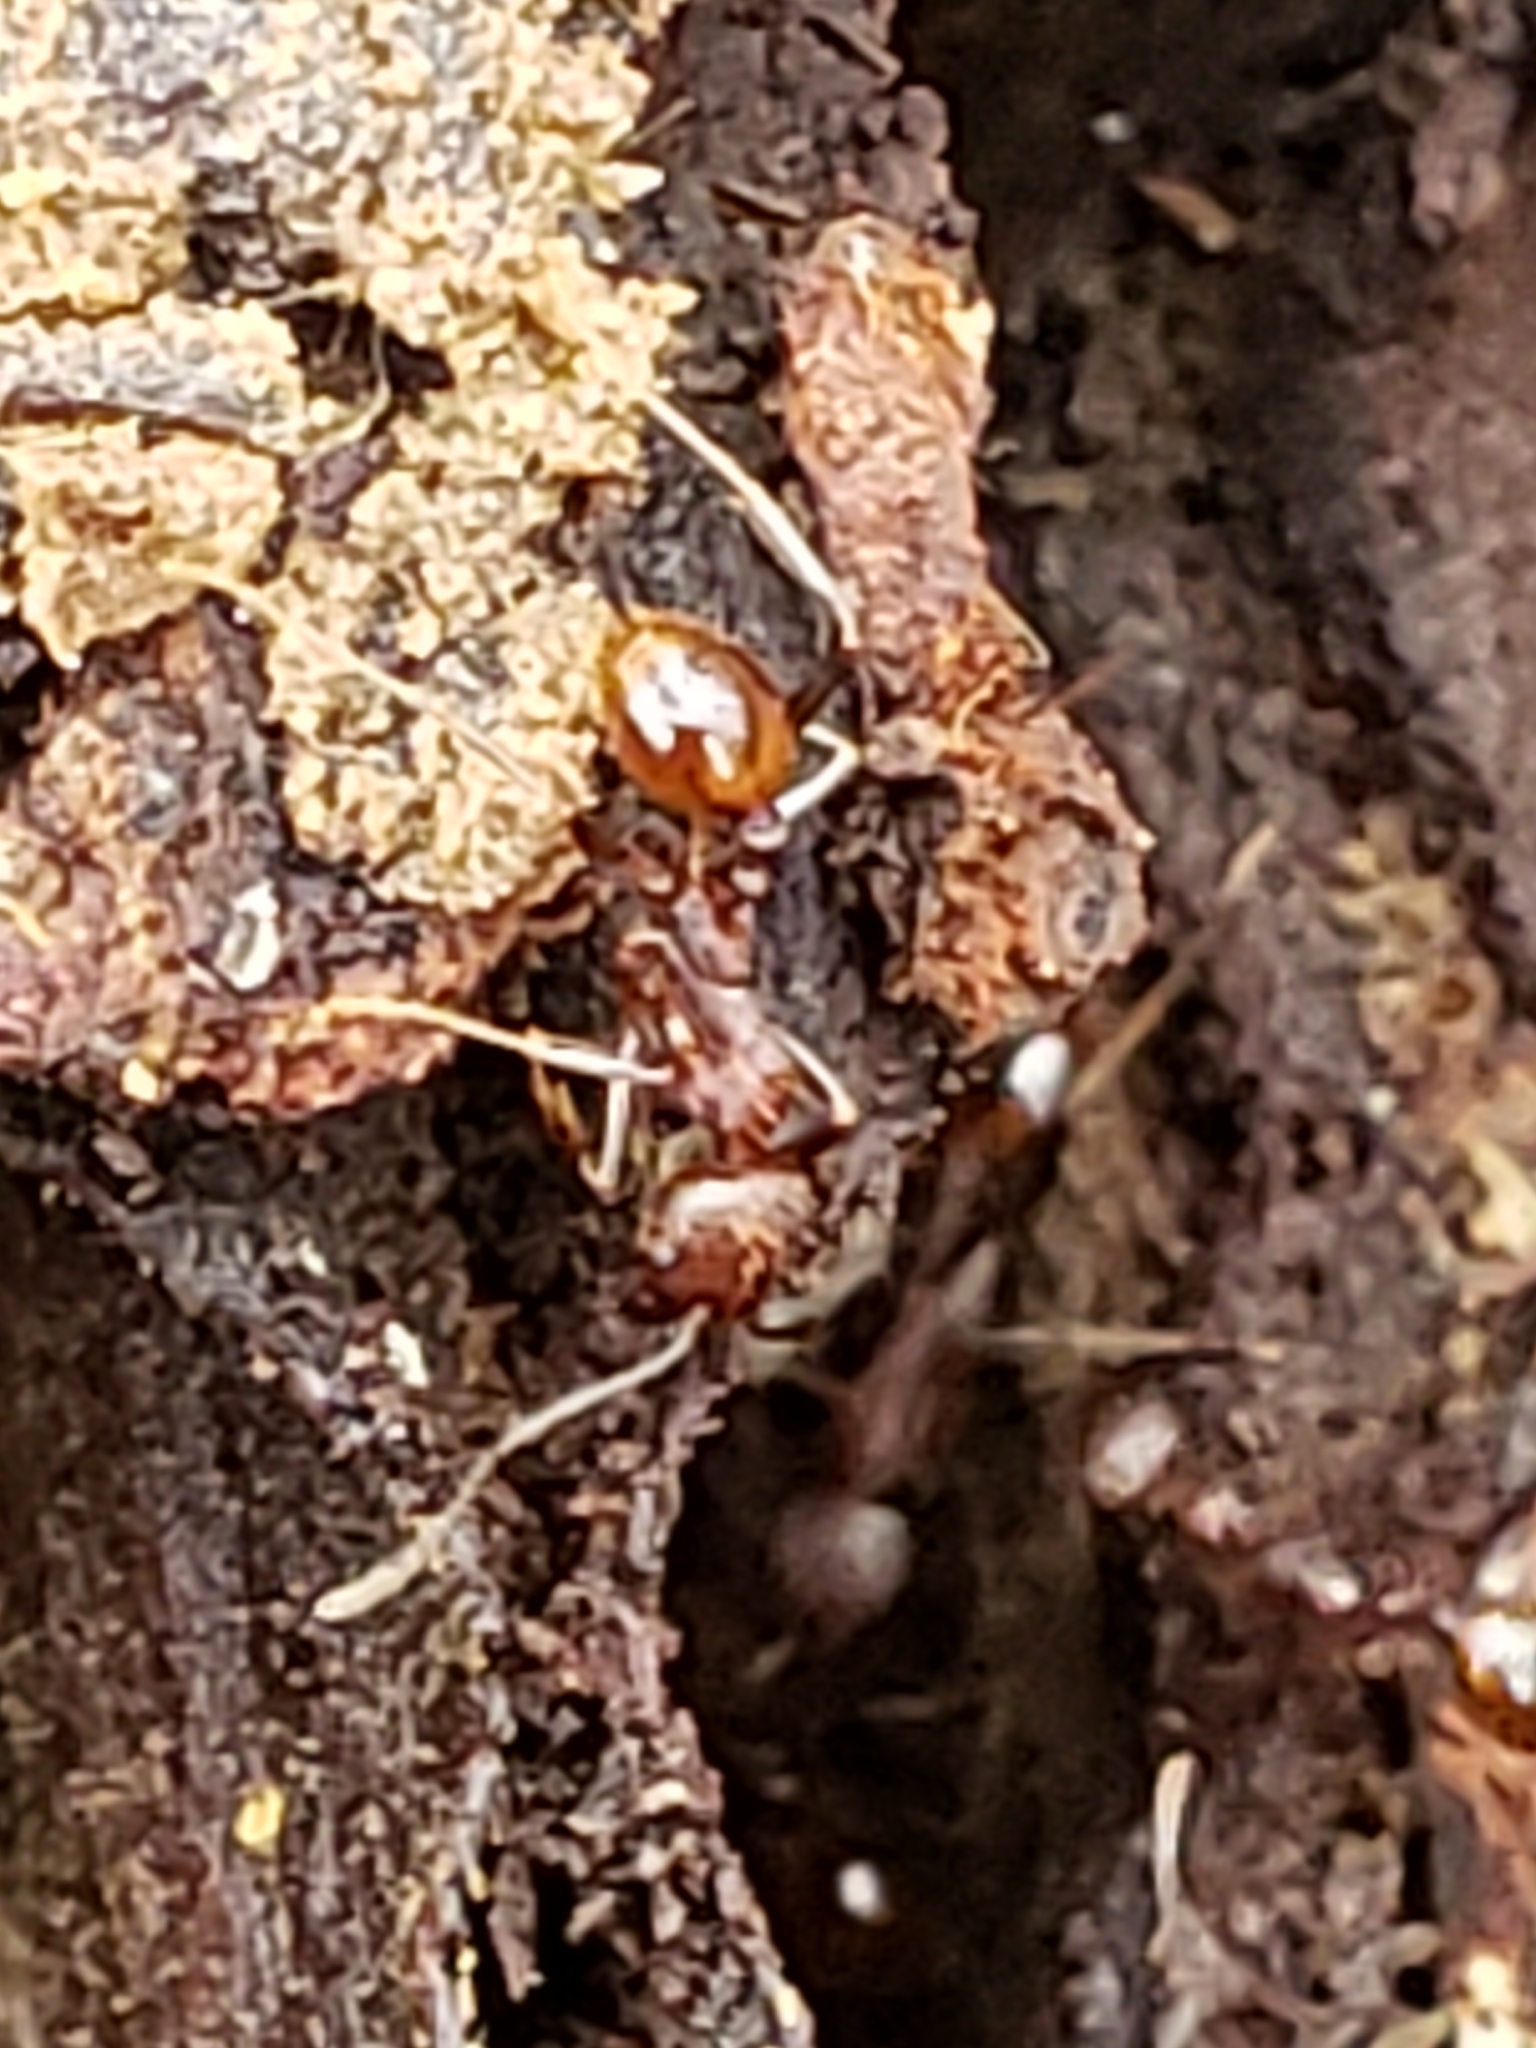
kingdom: Animalia
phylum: Arthropoda
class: Insecta
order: Hymenoptera
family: Formicidae
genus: Aphaenogaster
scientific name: Aphaenogaster fulva
